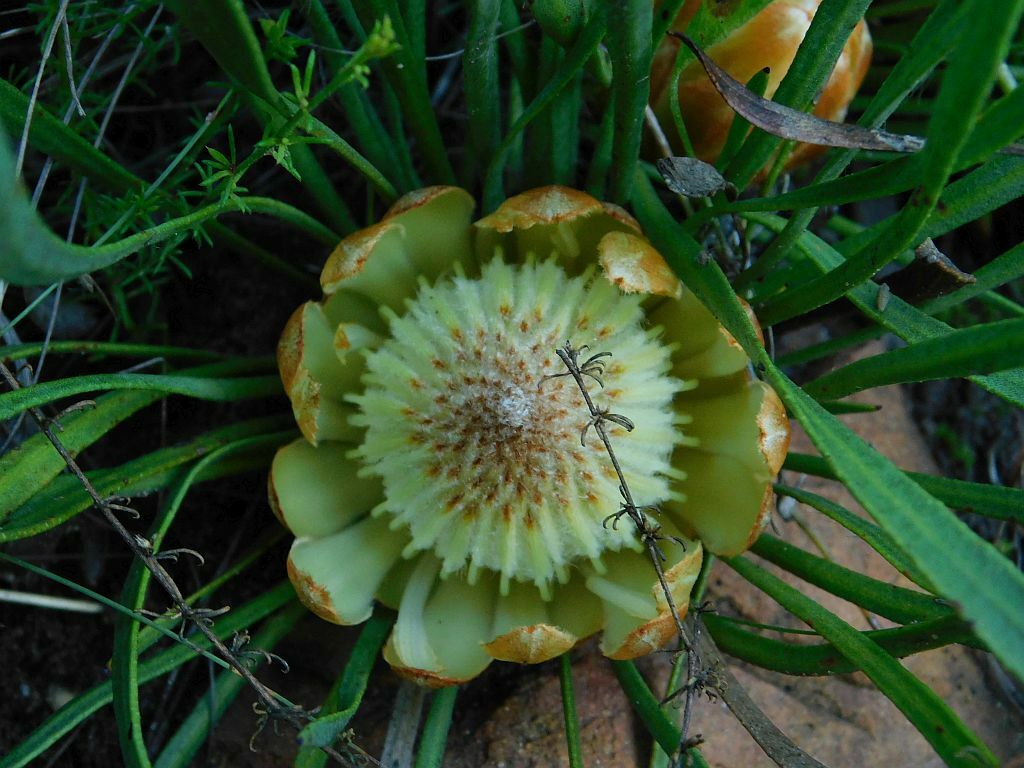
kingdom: Plantae
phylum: Tracheophyta
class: Magnoliopsida
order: Proteales
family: Proteaceae
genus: Protea
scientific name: Protea scabra
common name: Sandpaper-leaf sugarbush
